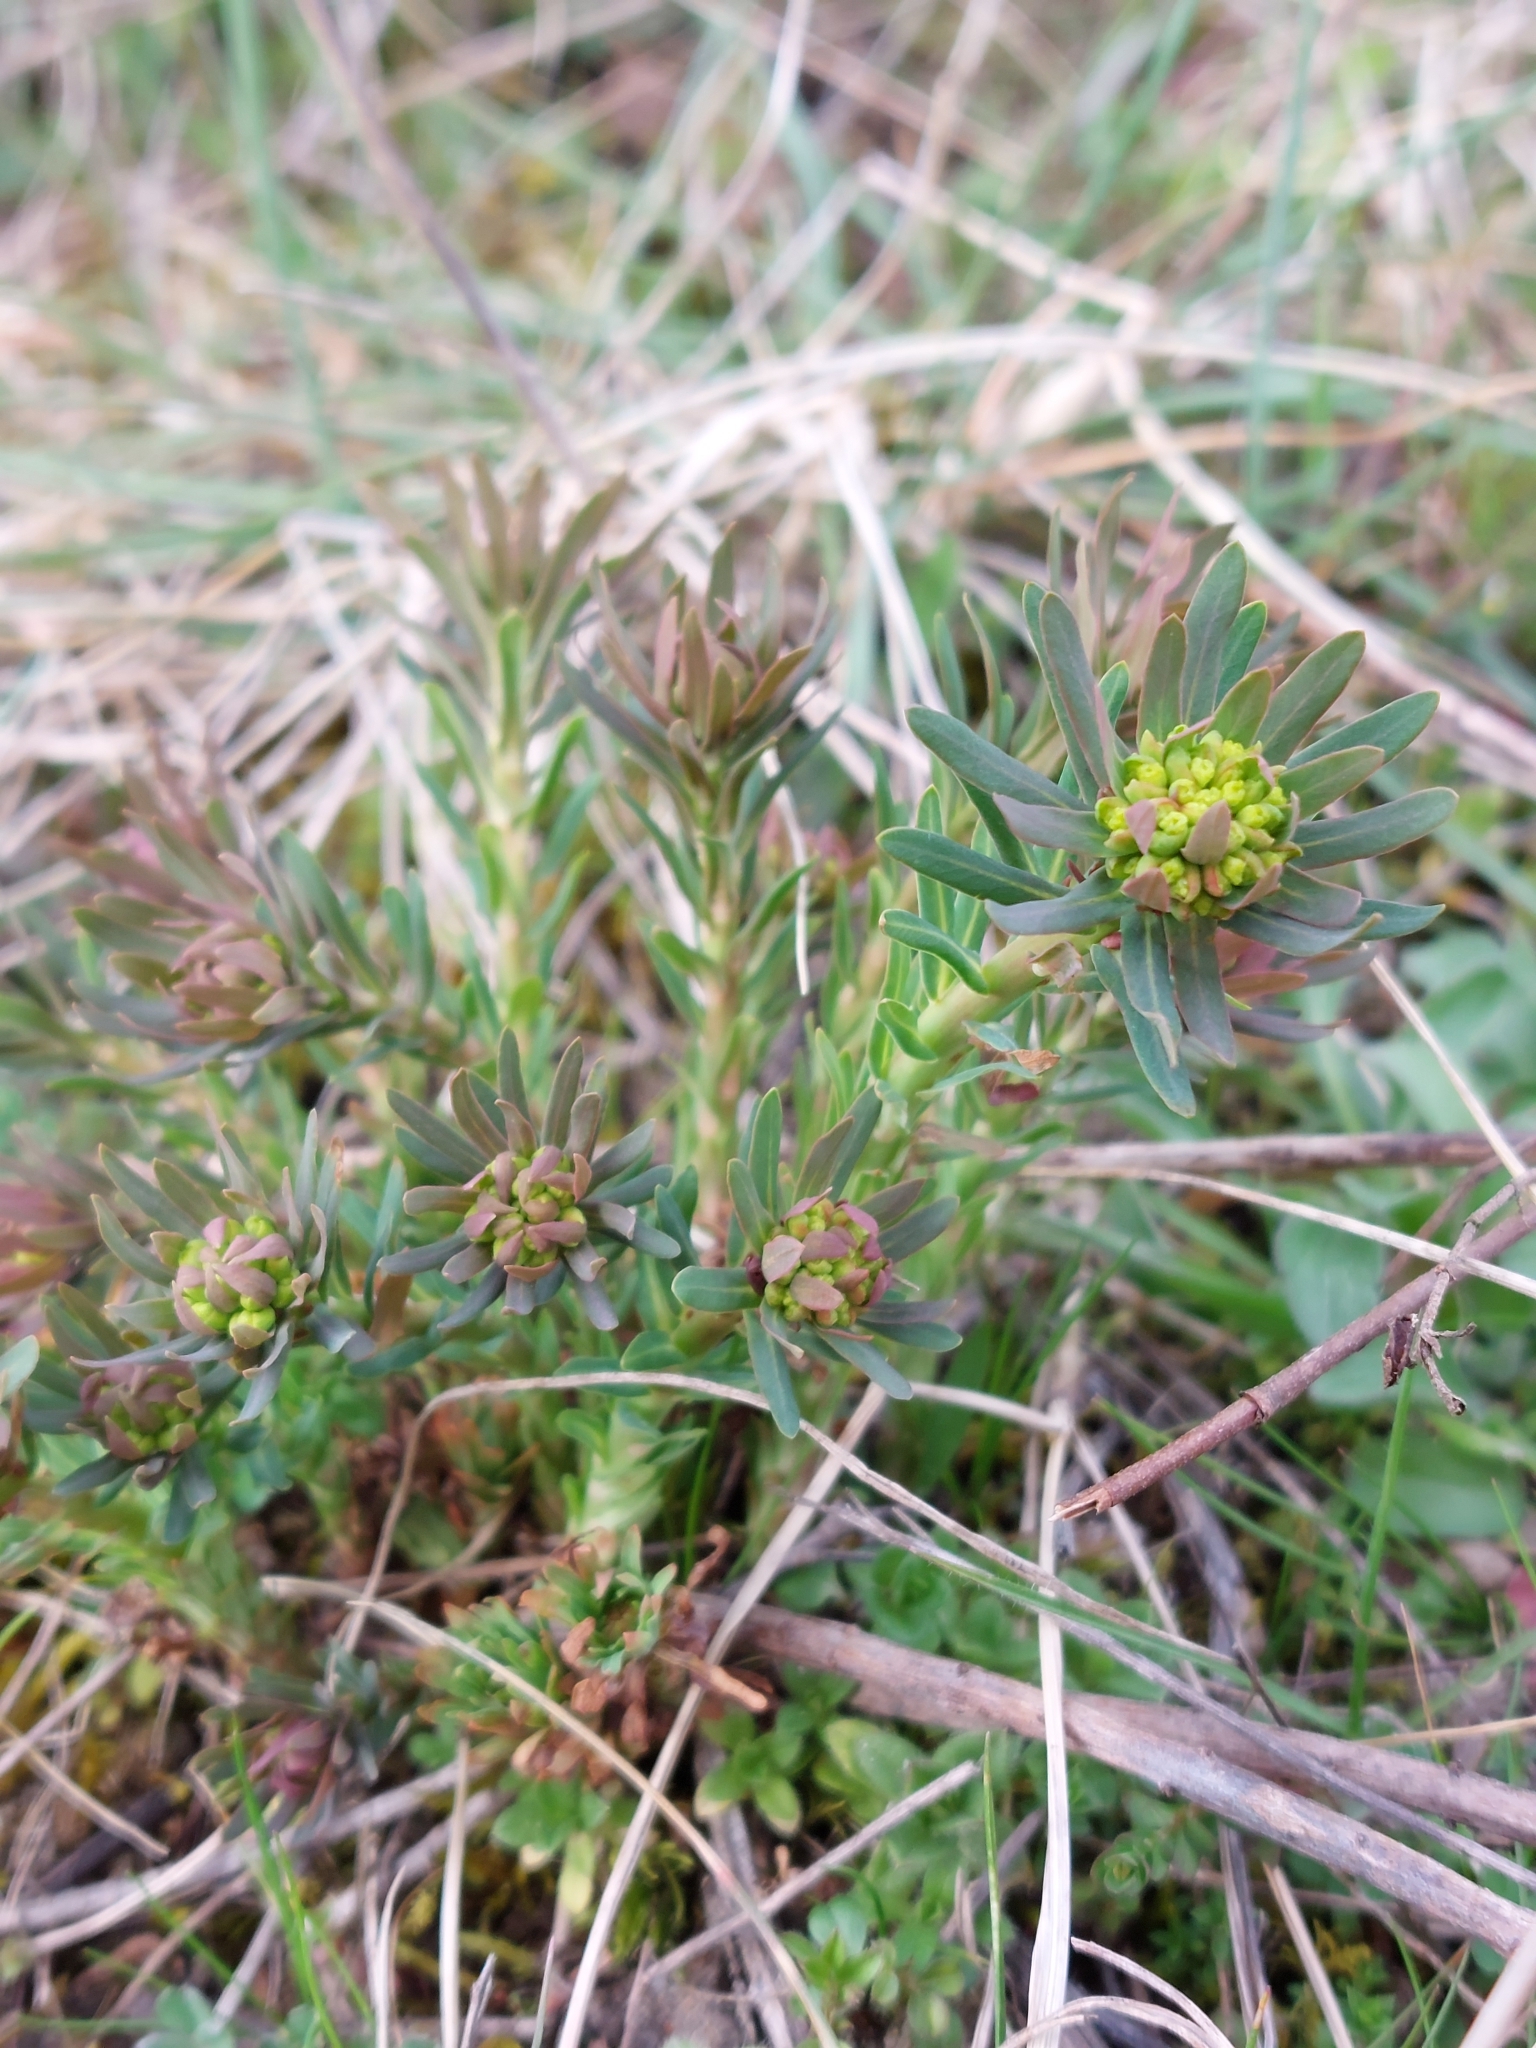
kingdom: Plantae
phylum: Tracheophyta
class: Magnoliopsida
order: Malpighiales
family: Euphorbiaceae
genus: Euphorbia
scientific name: Euphorbia cyparissias
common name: Cypress spurge
